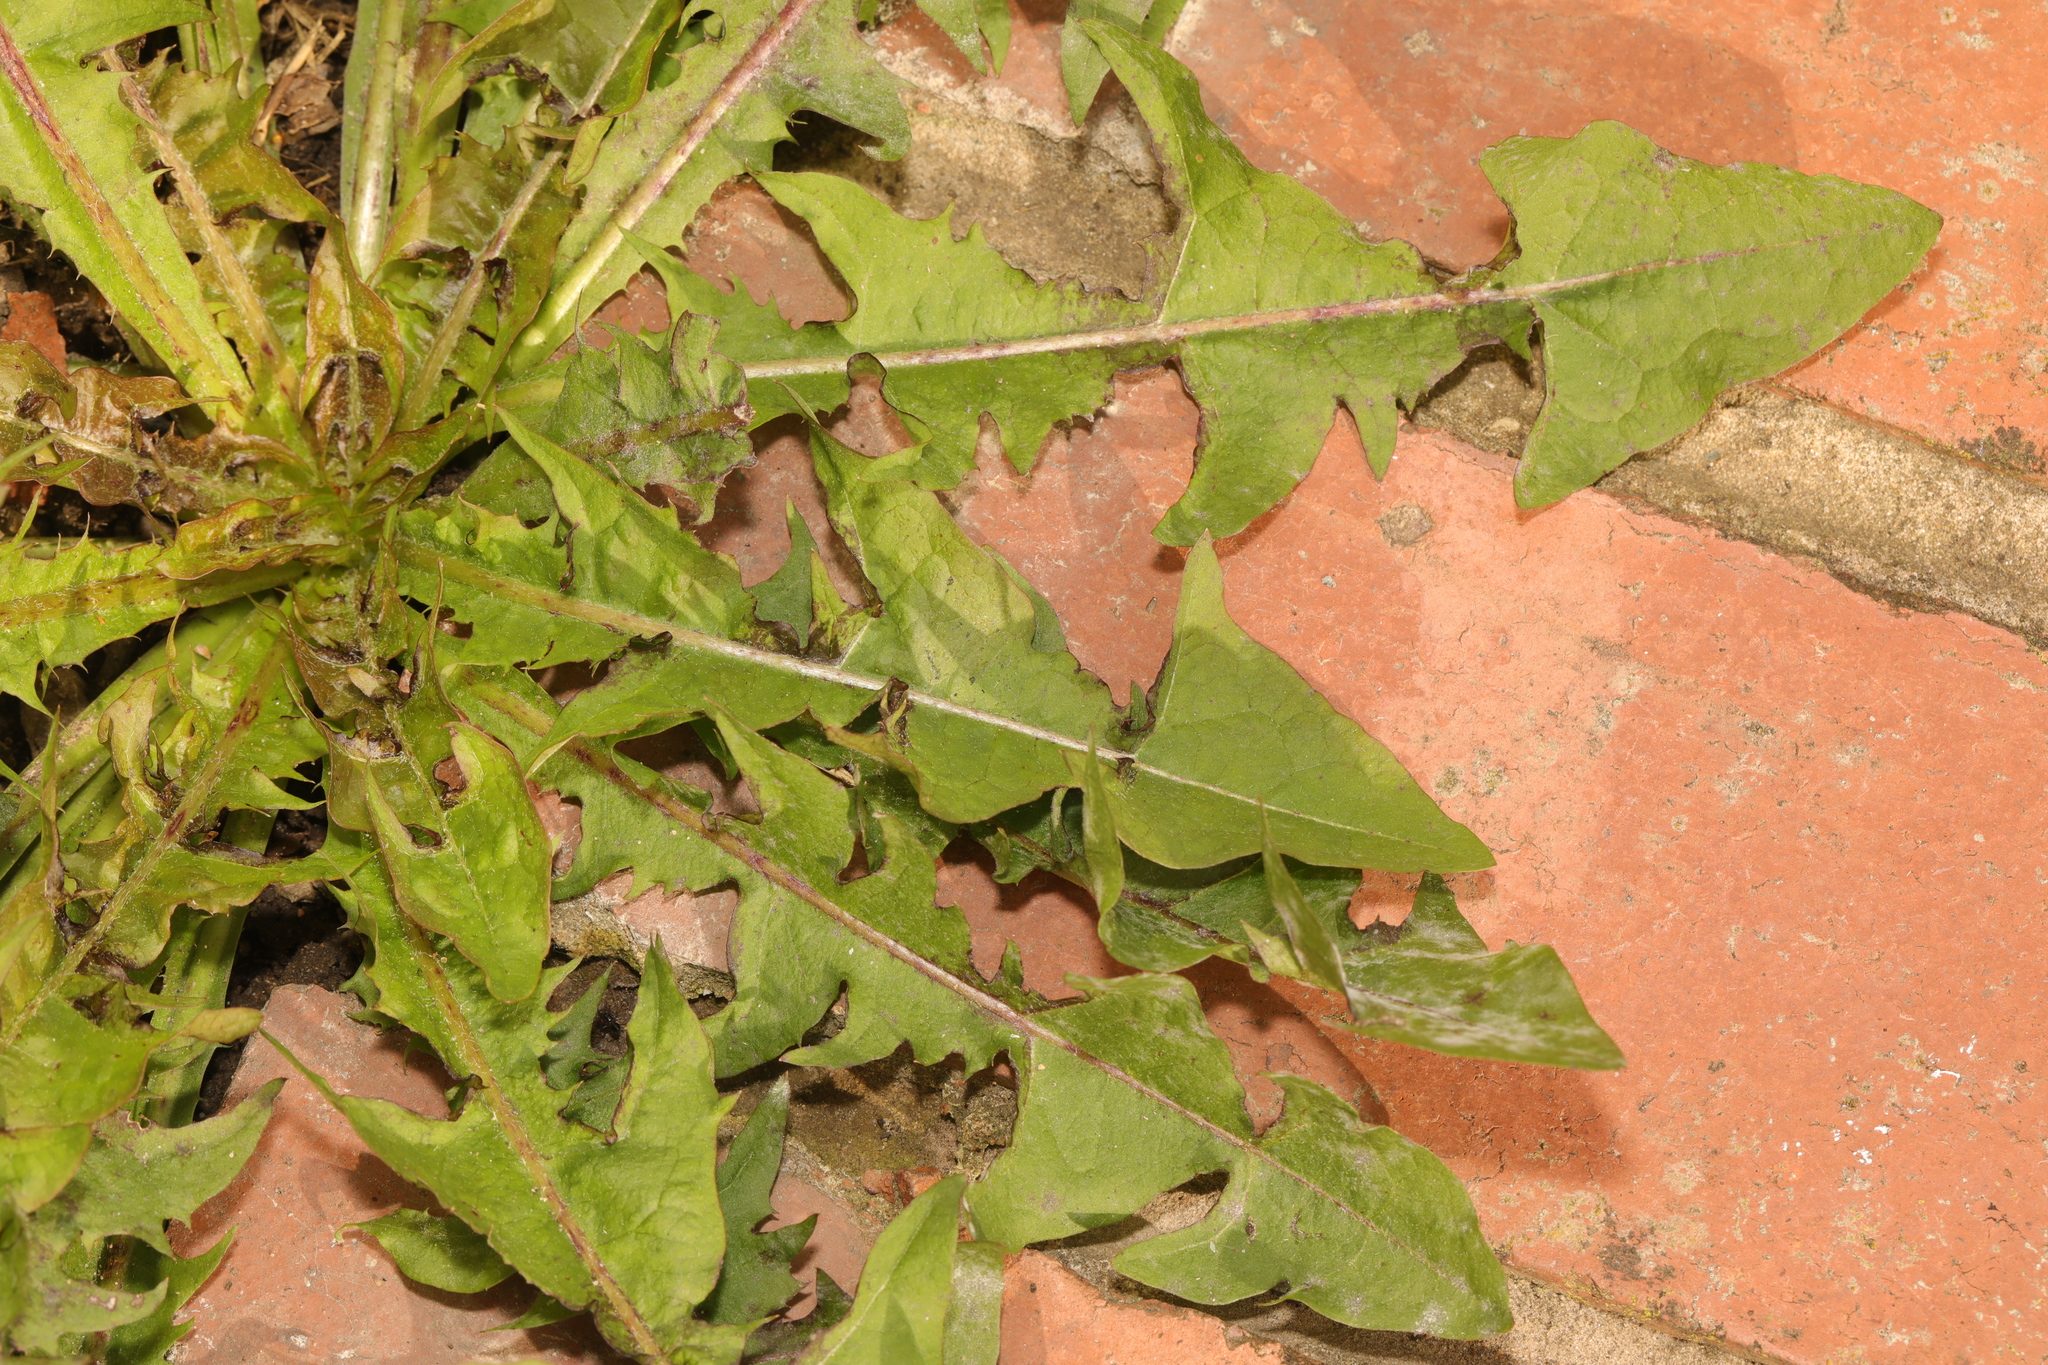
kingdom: Plantae
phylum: Tracheophyta
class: Magnoliopsida
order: Asterales
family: Asteraceae
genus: Taraxacum
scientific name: Taraxacum officinale
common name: Common dandelion
